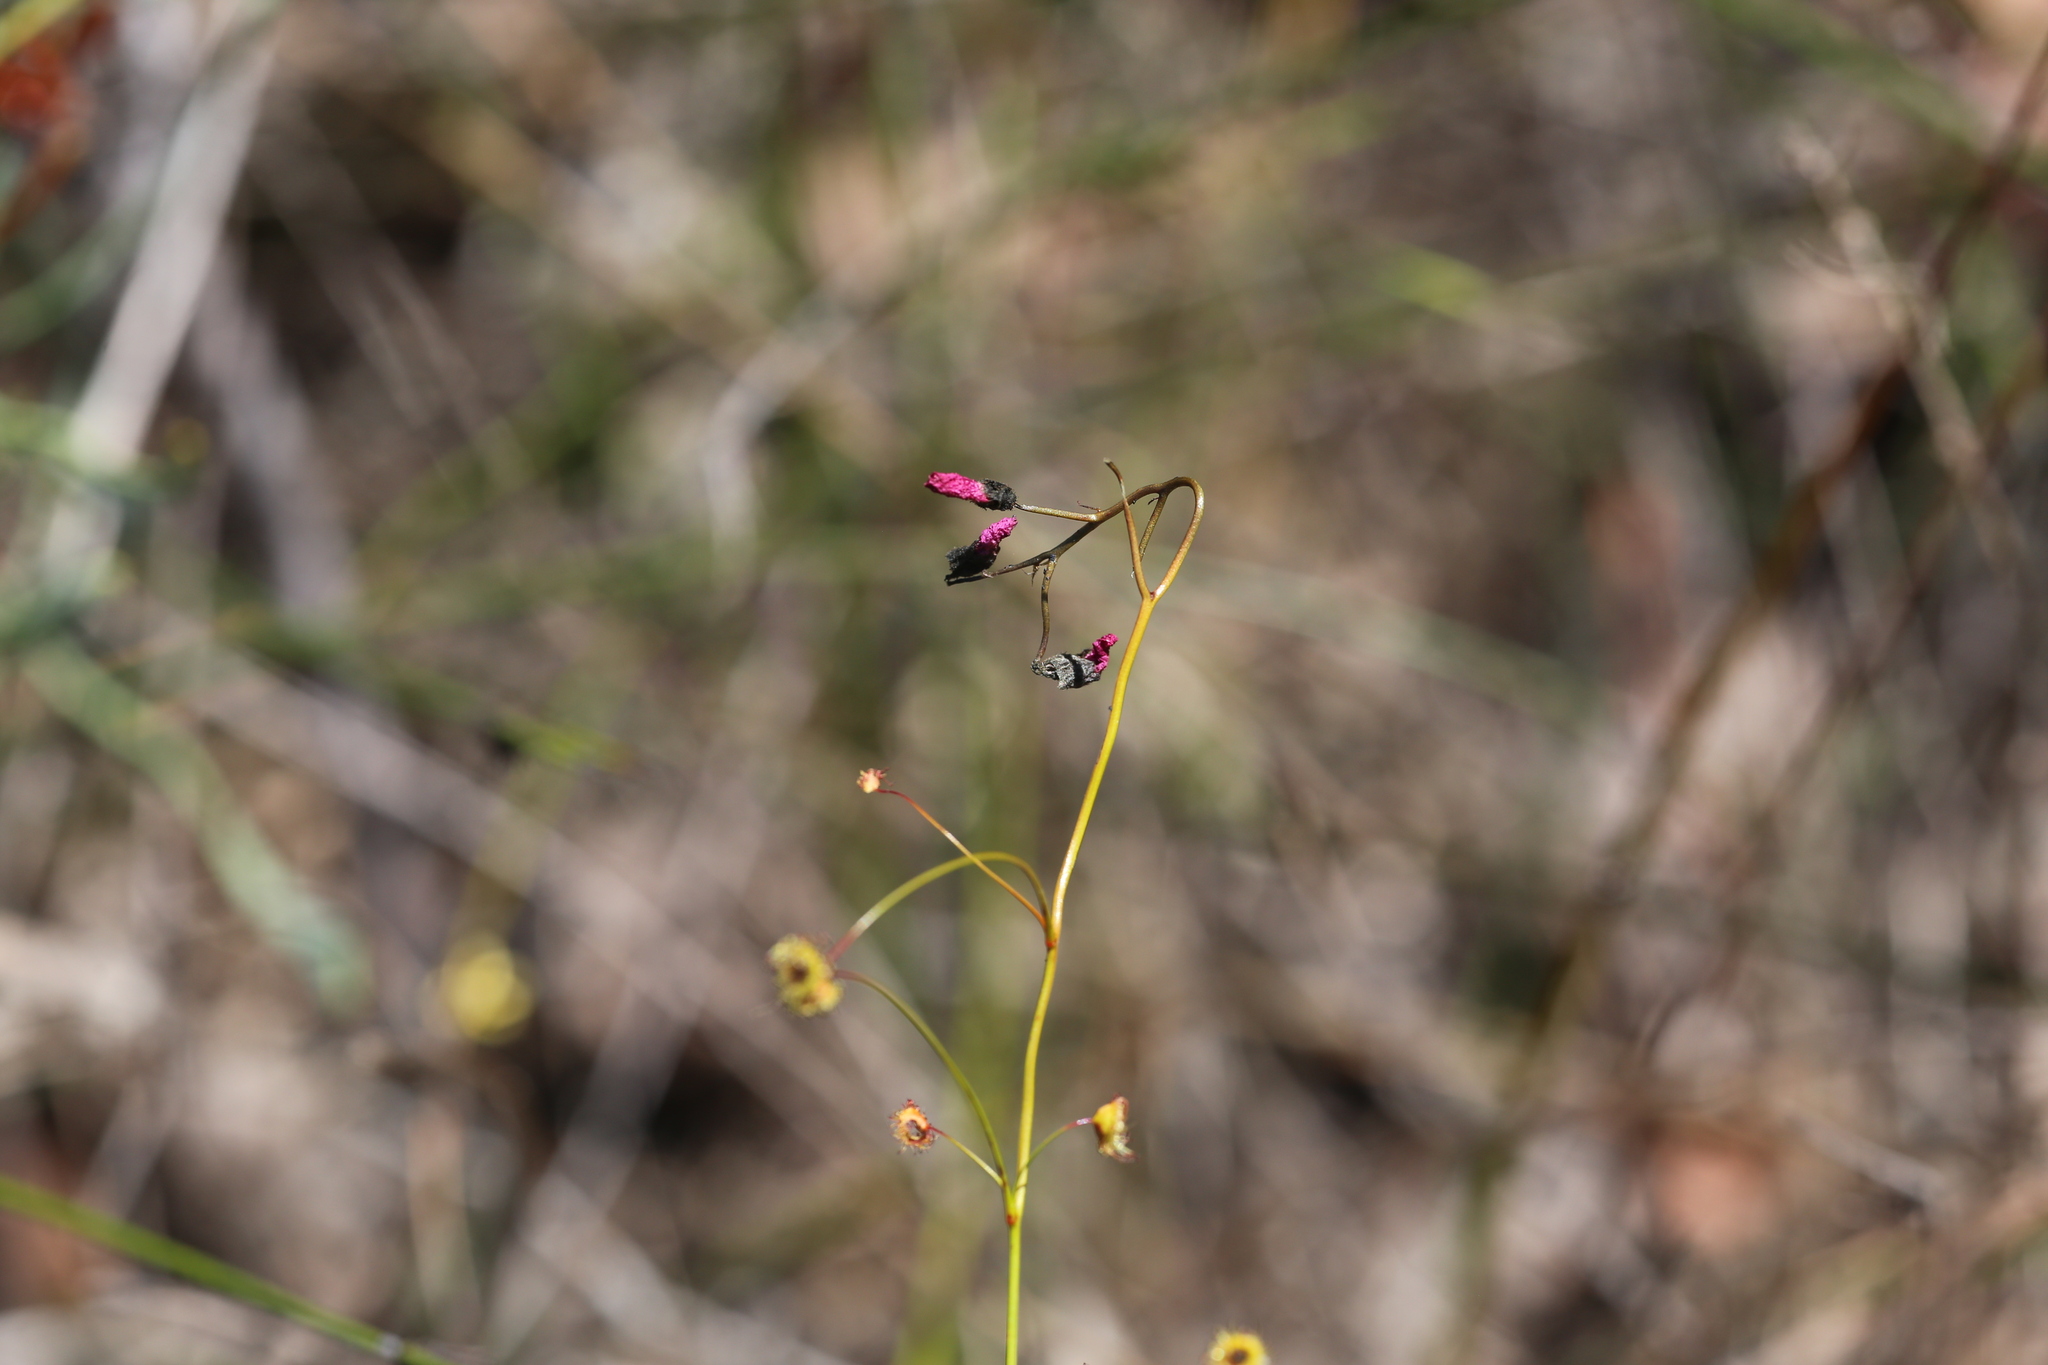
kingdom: Plantae
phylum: Tracheophyta
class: Magnoliopsida
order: Caryophyllales
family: Droseraceae
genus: Drosera
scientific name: Drosera
